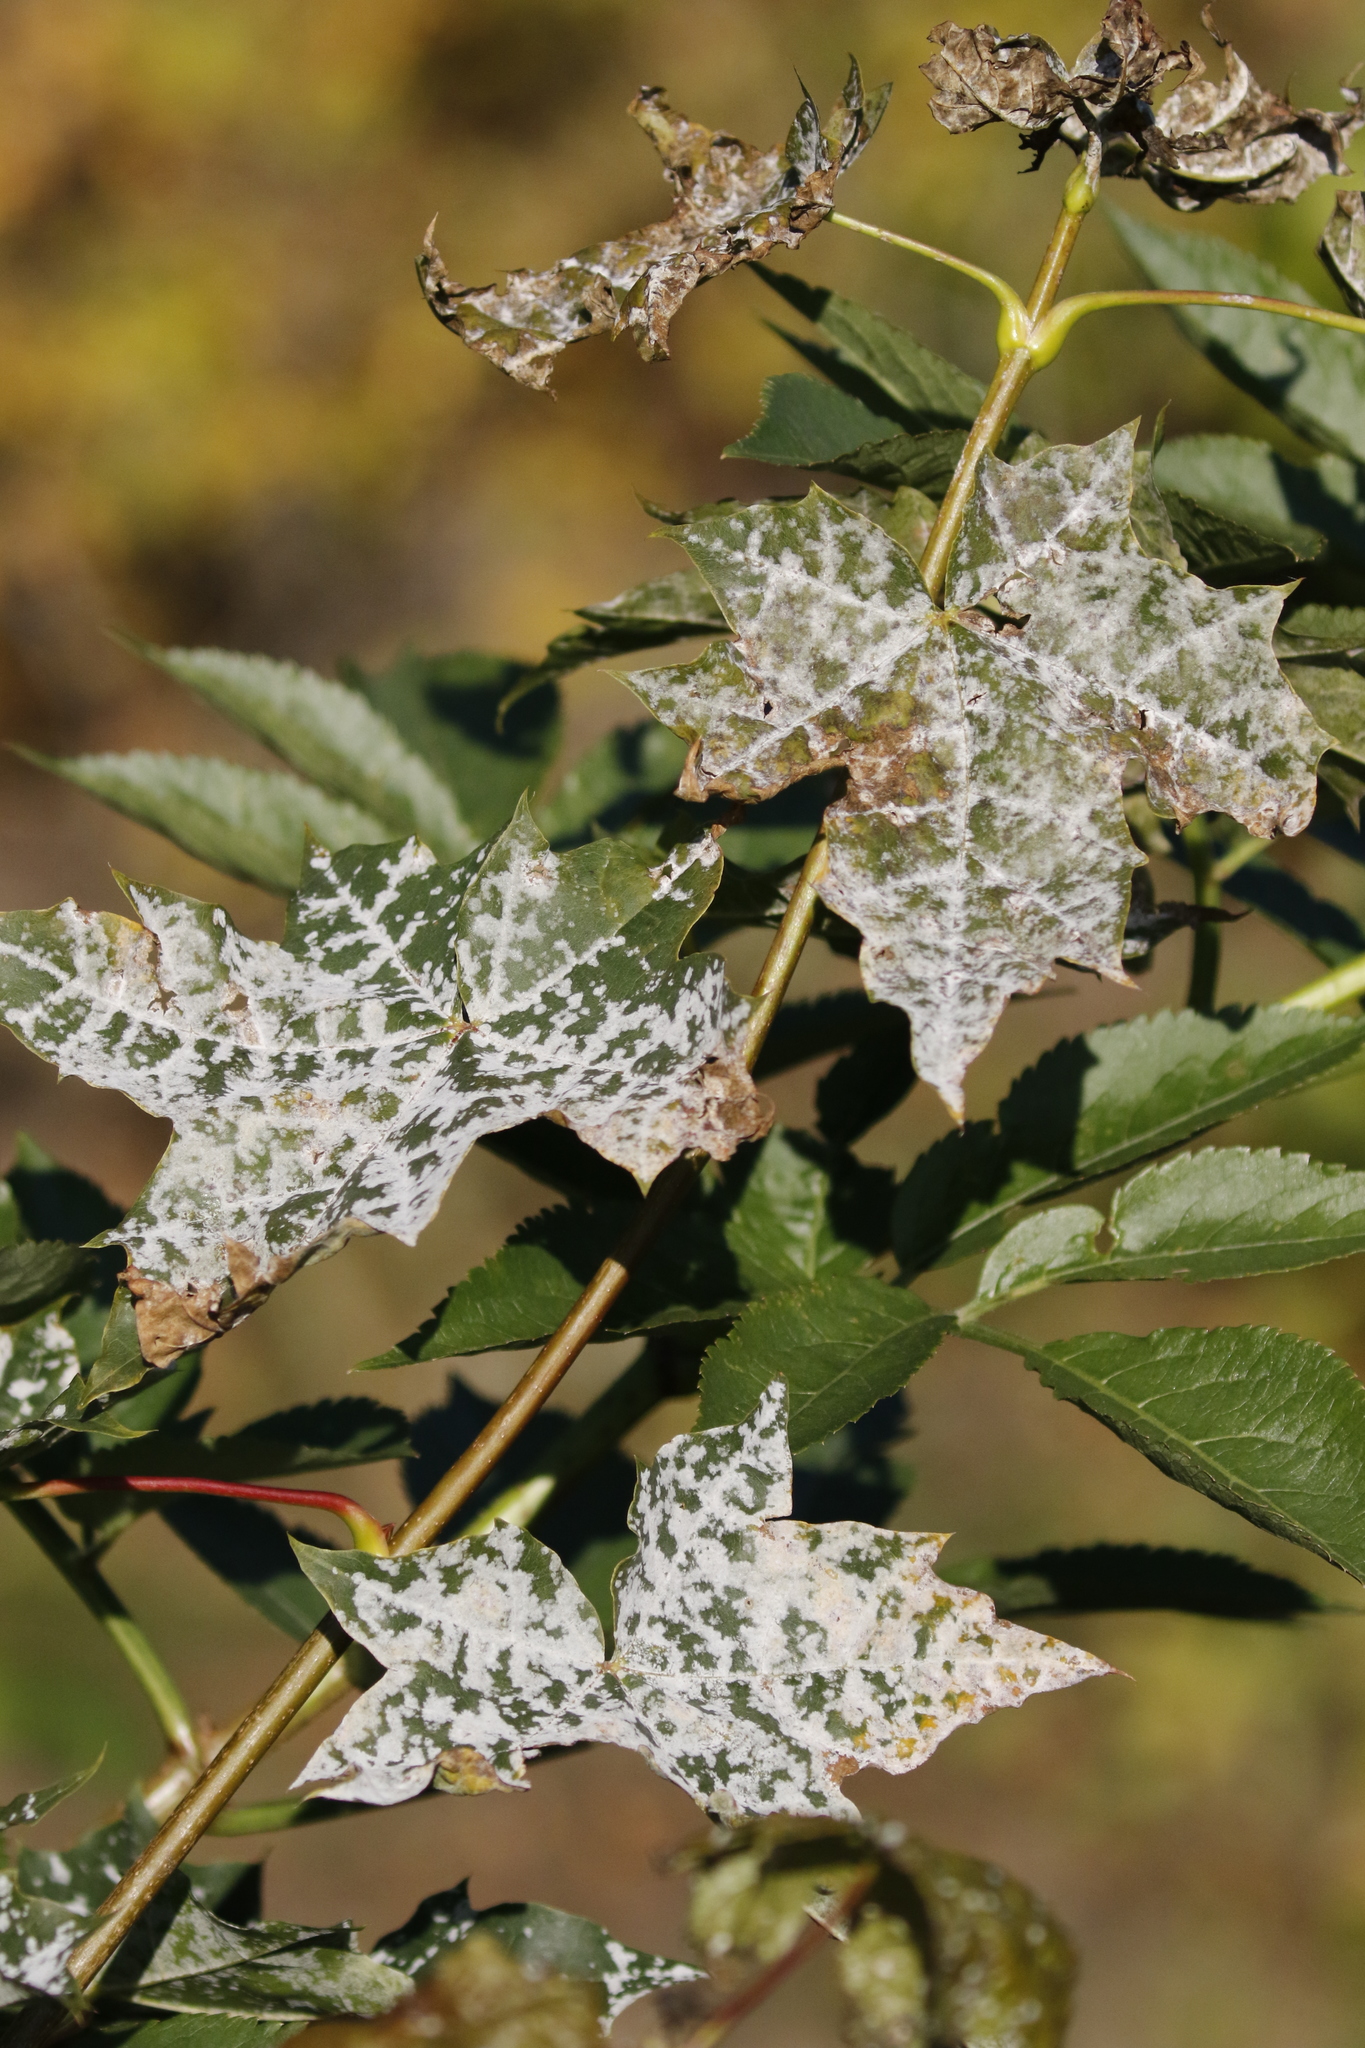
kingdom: Plantae
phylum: Tracheophyta
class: Magnoliopsida
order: Sapindales
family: Sapindaceae
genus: Acer
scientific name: Acer platanoides
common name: Norway maple
